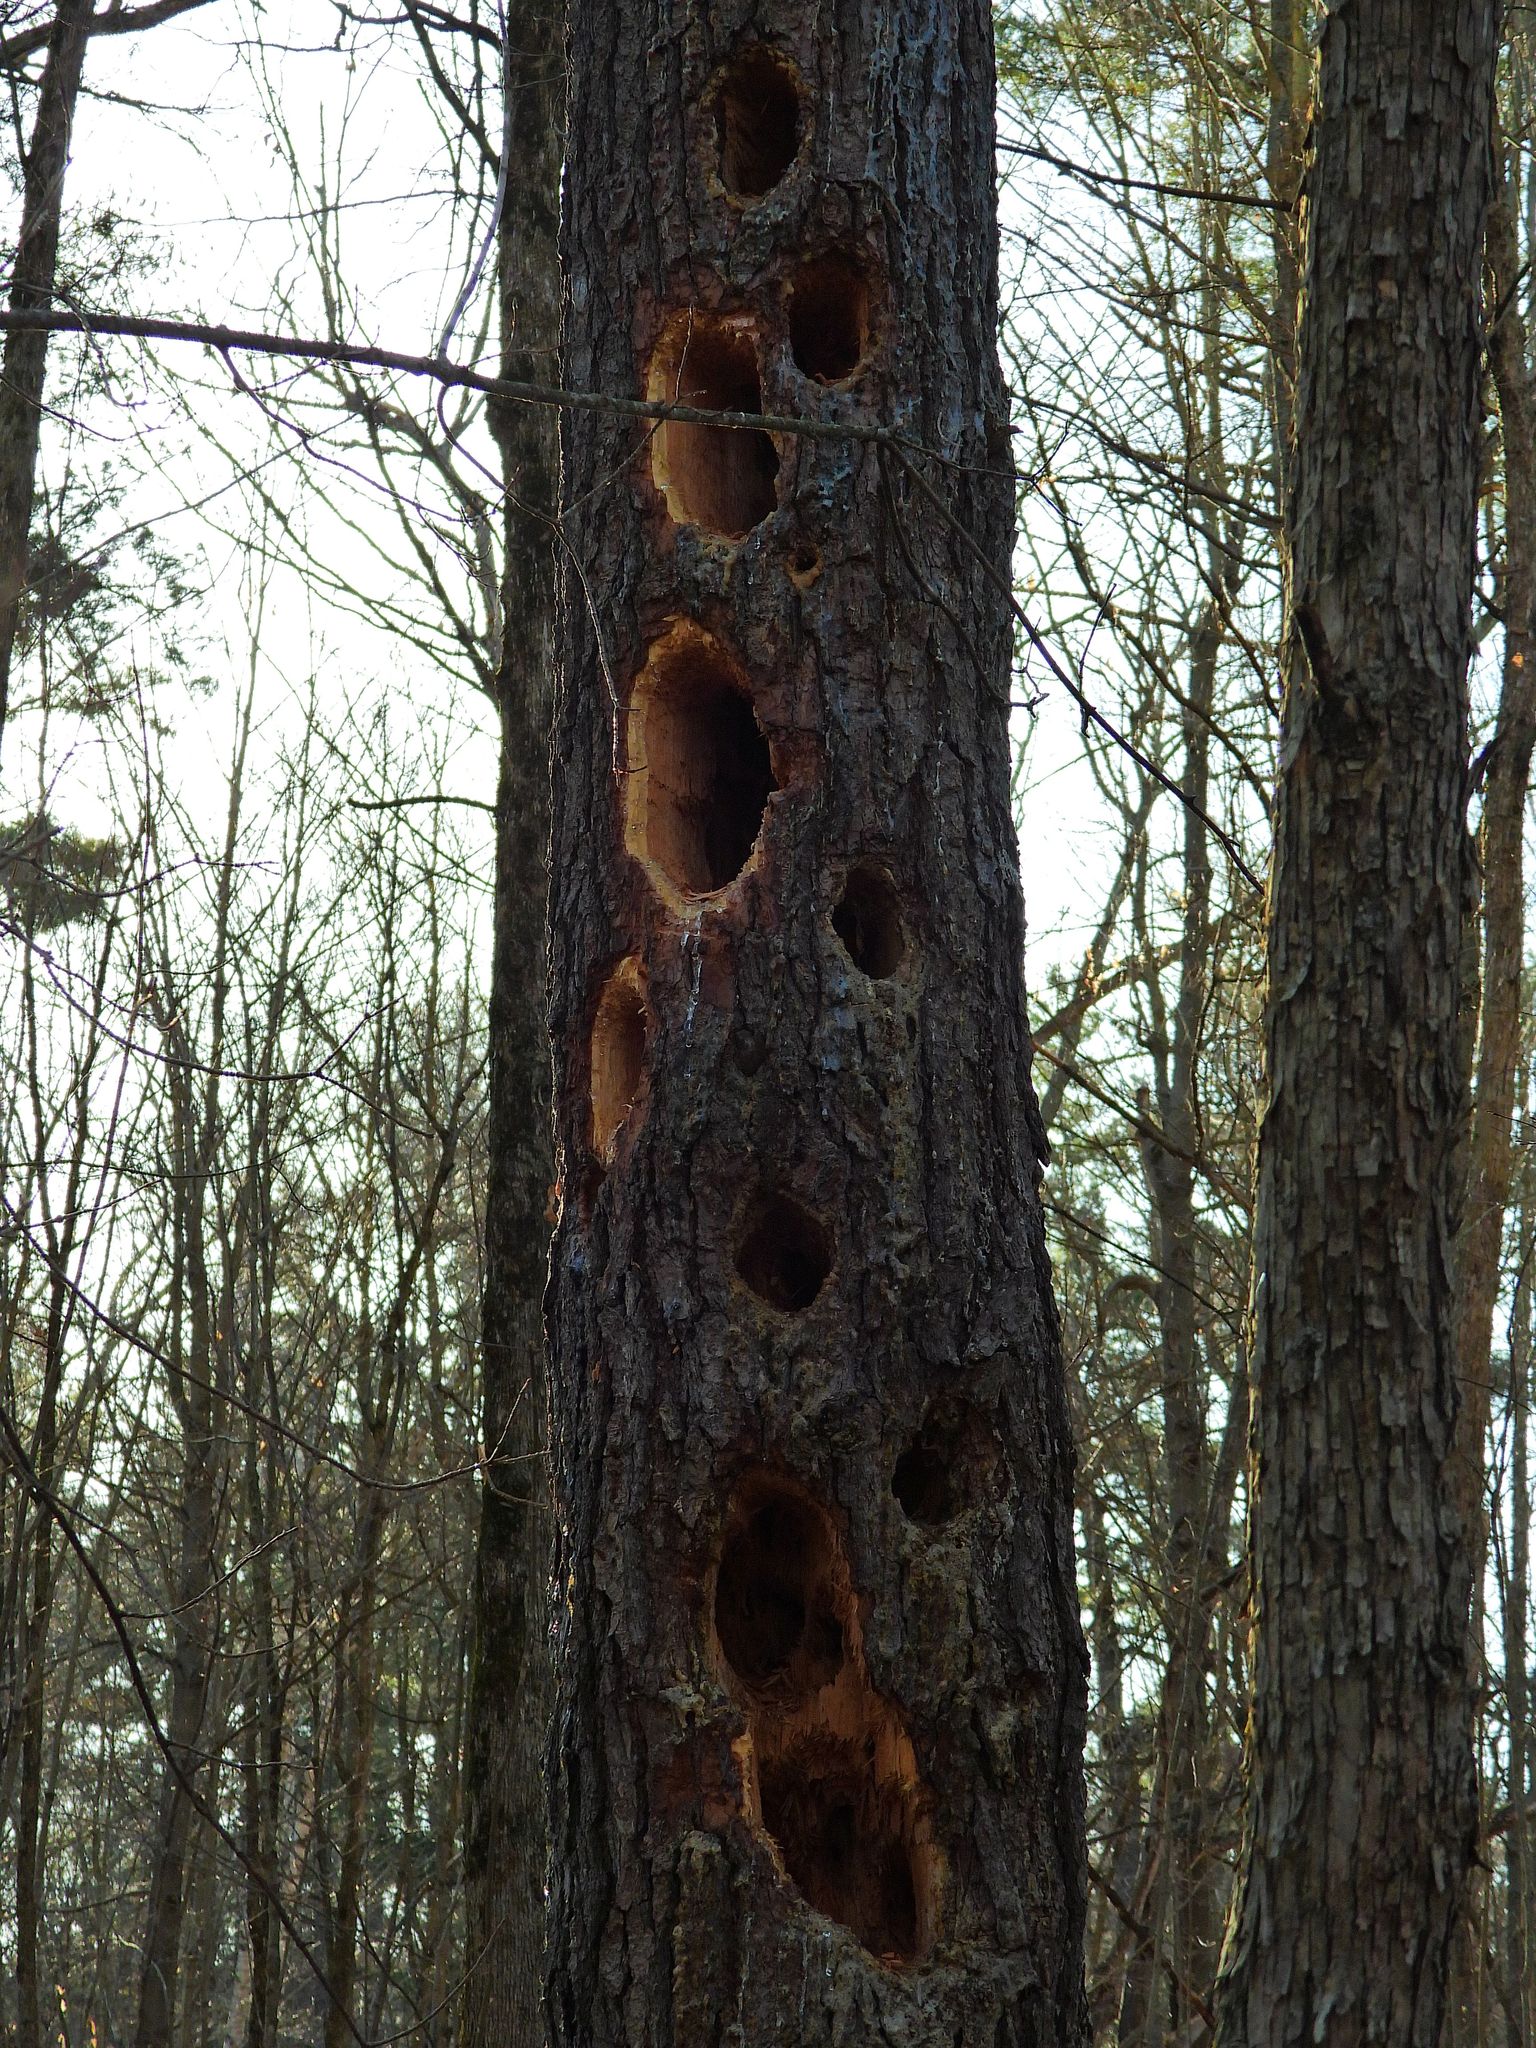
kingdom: Animalia
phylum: Chordata
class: Aves
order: Piciformes
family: Picidae
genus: Dryocopus
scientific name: Dryocopus pileatus
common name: Pileated woodpecker
